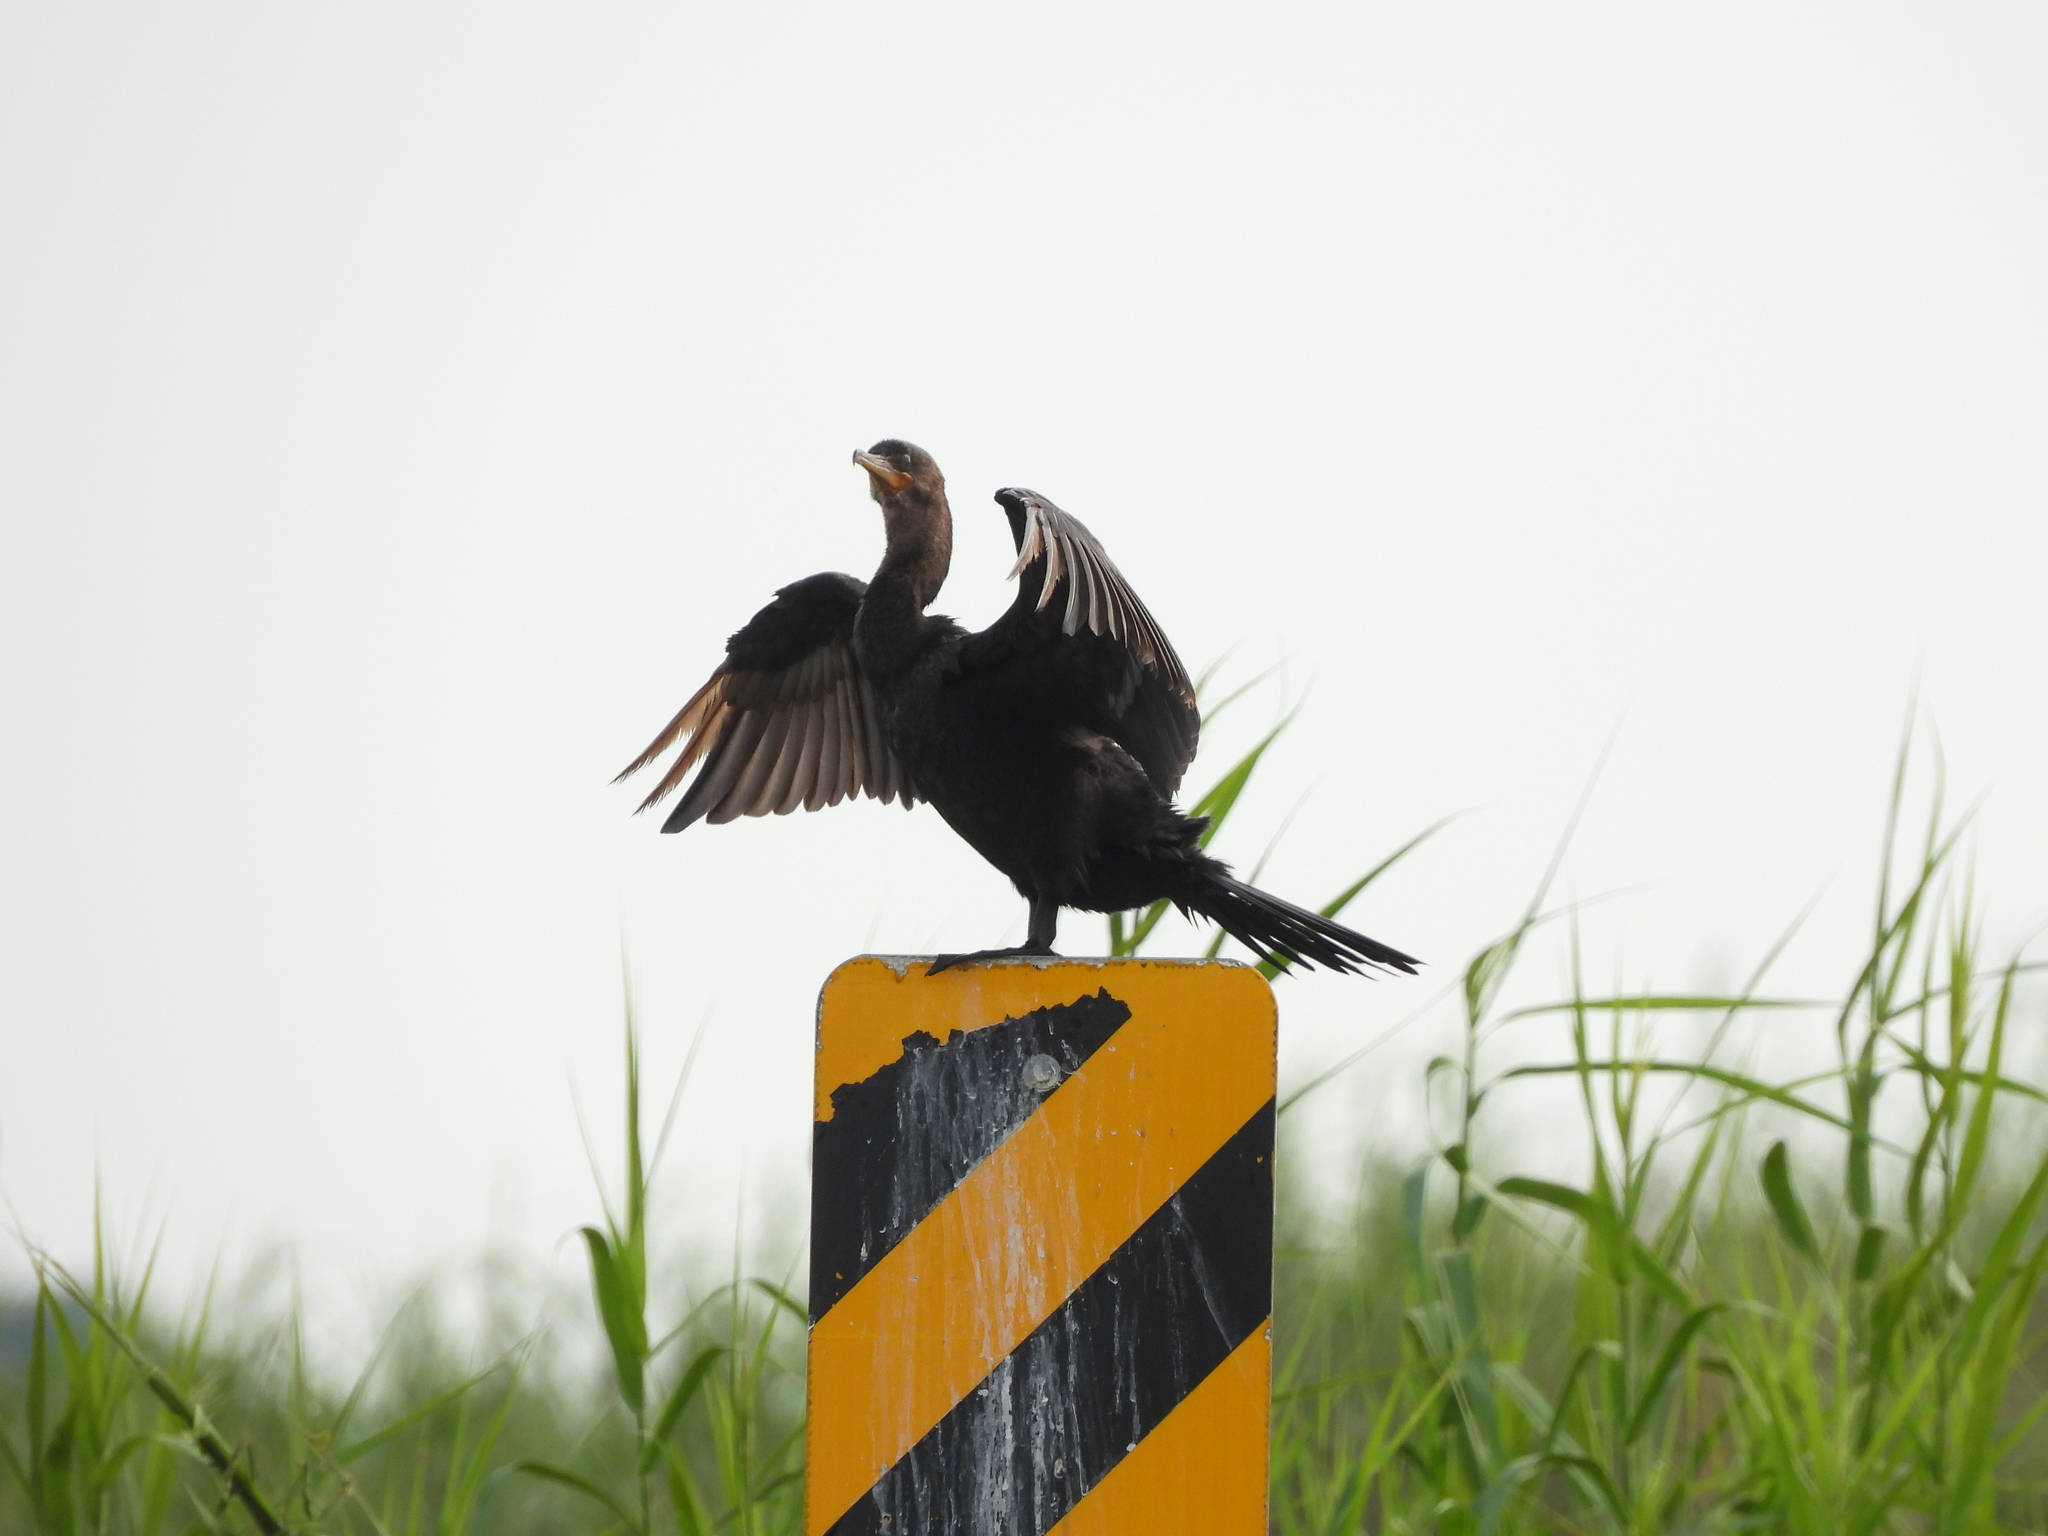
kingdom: Animalia
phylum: Chordata
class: Aves
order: Suliformes
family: Phalacrocoracidae
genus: Phalacrocorax
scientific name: Phalacrocorax brasilianus
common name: Neotropic cormorant
